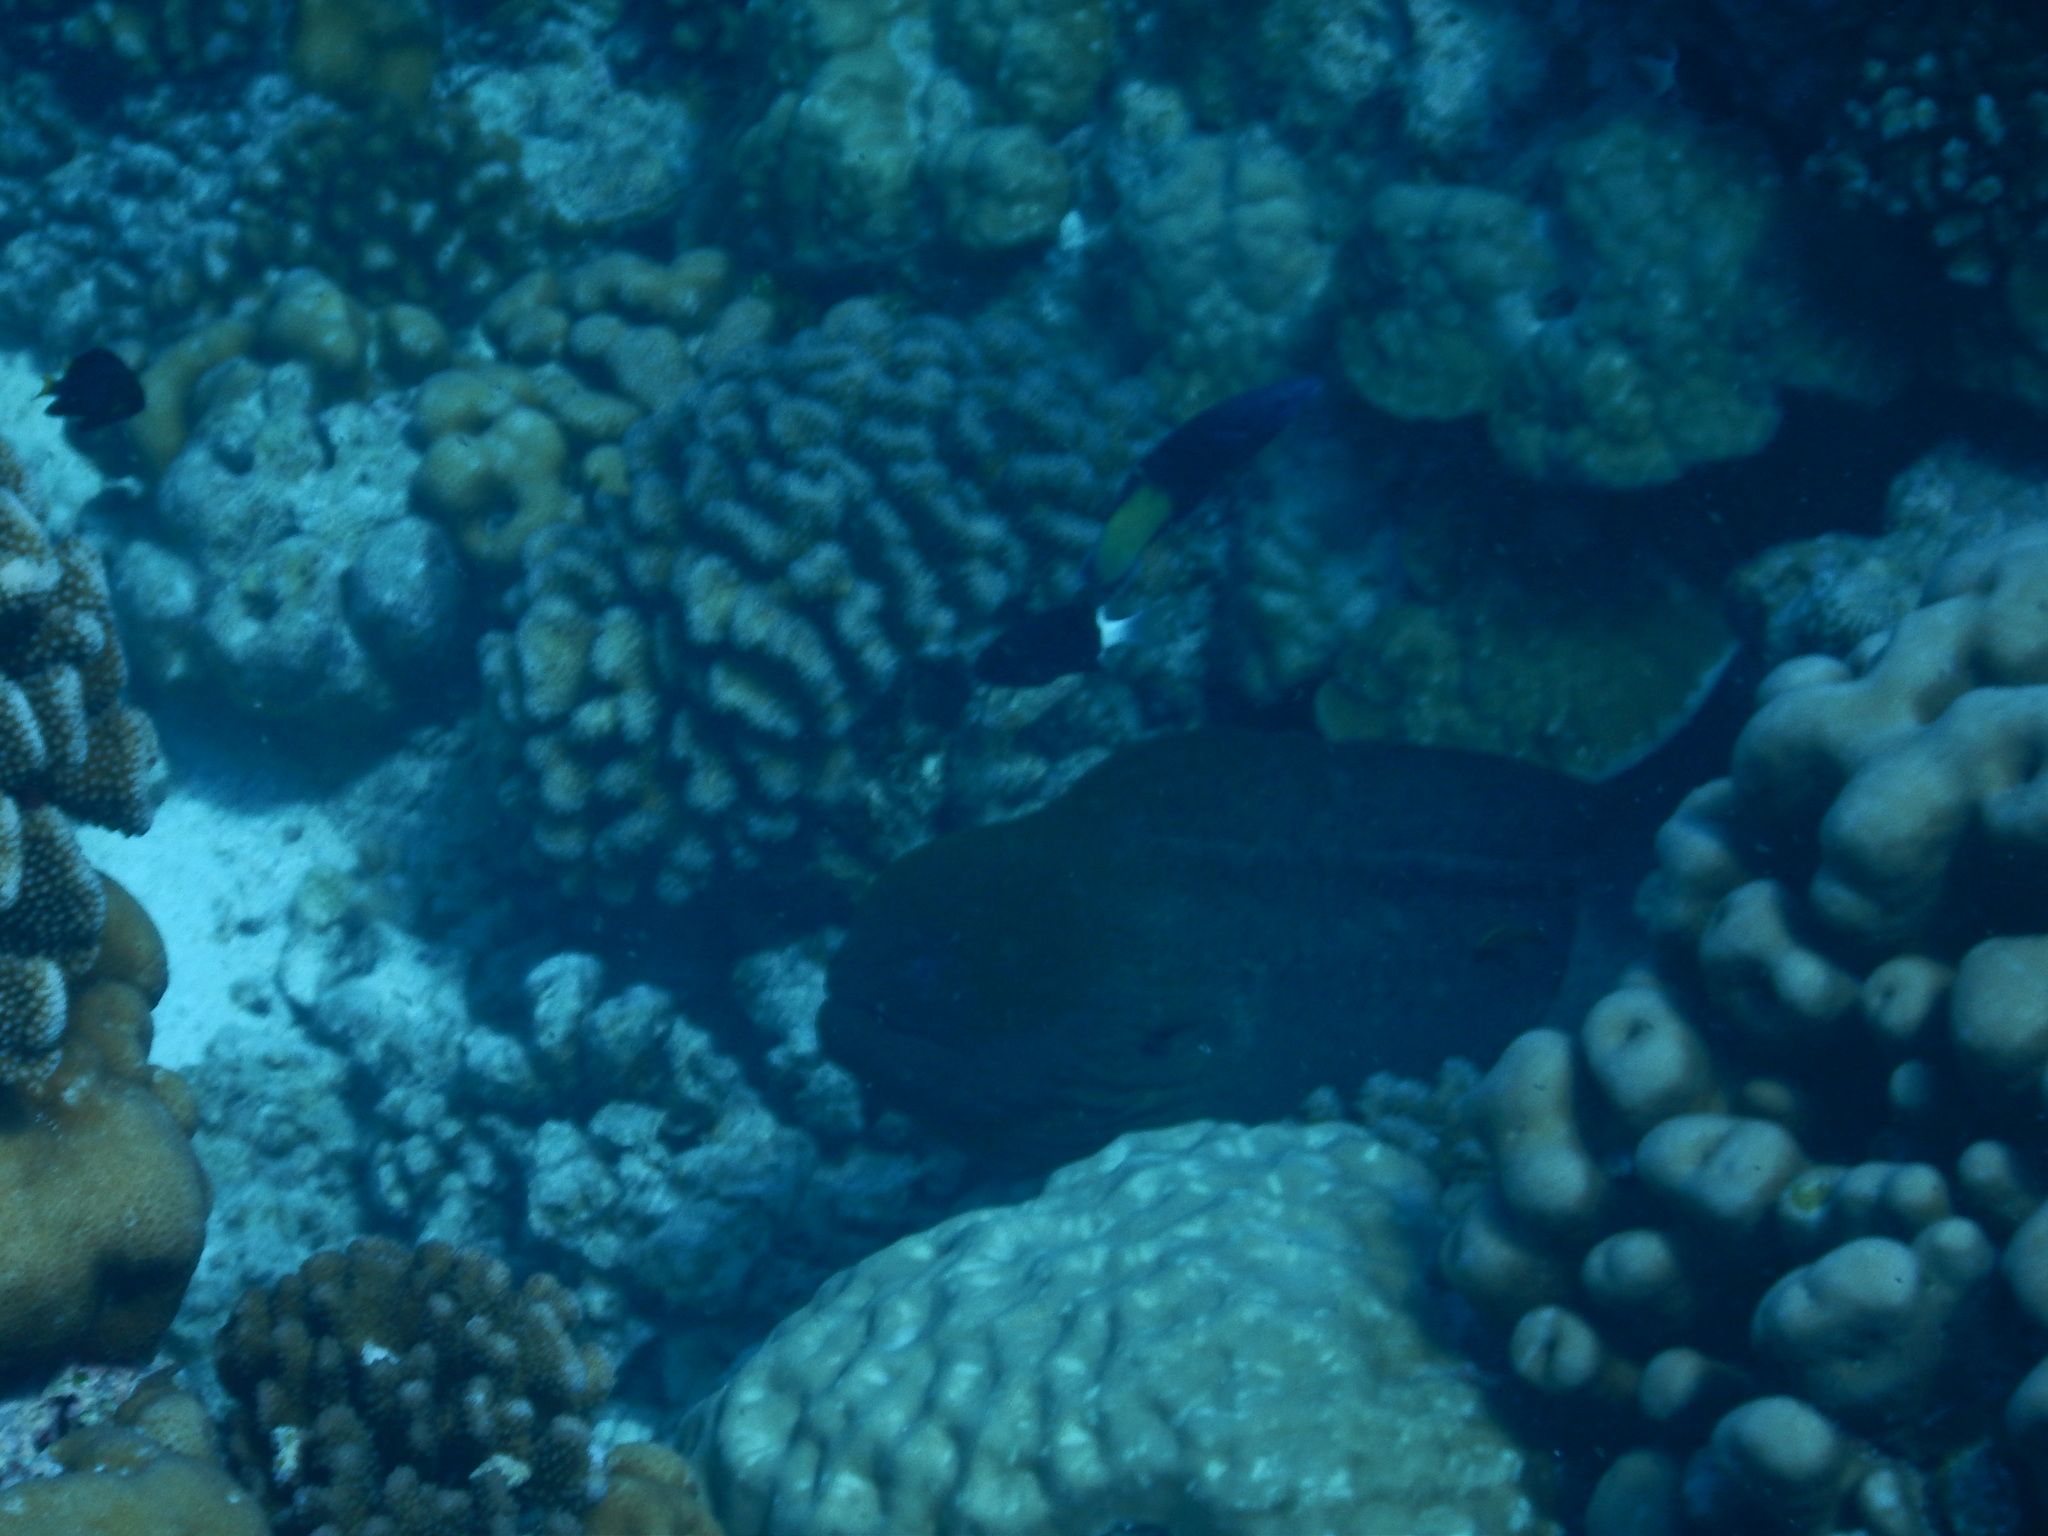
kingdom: Animalia
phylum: Chordata
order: Anguilliformes
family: Muraenidae
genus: Gymnothorax
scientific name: Gymnothorax javanicus
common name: Giant moray
